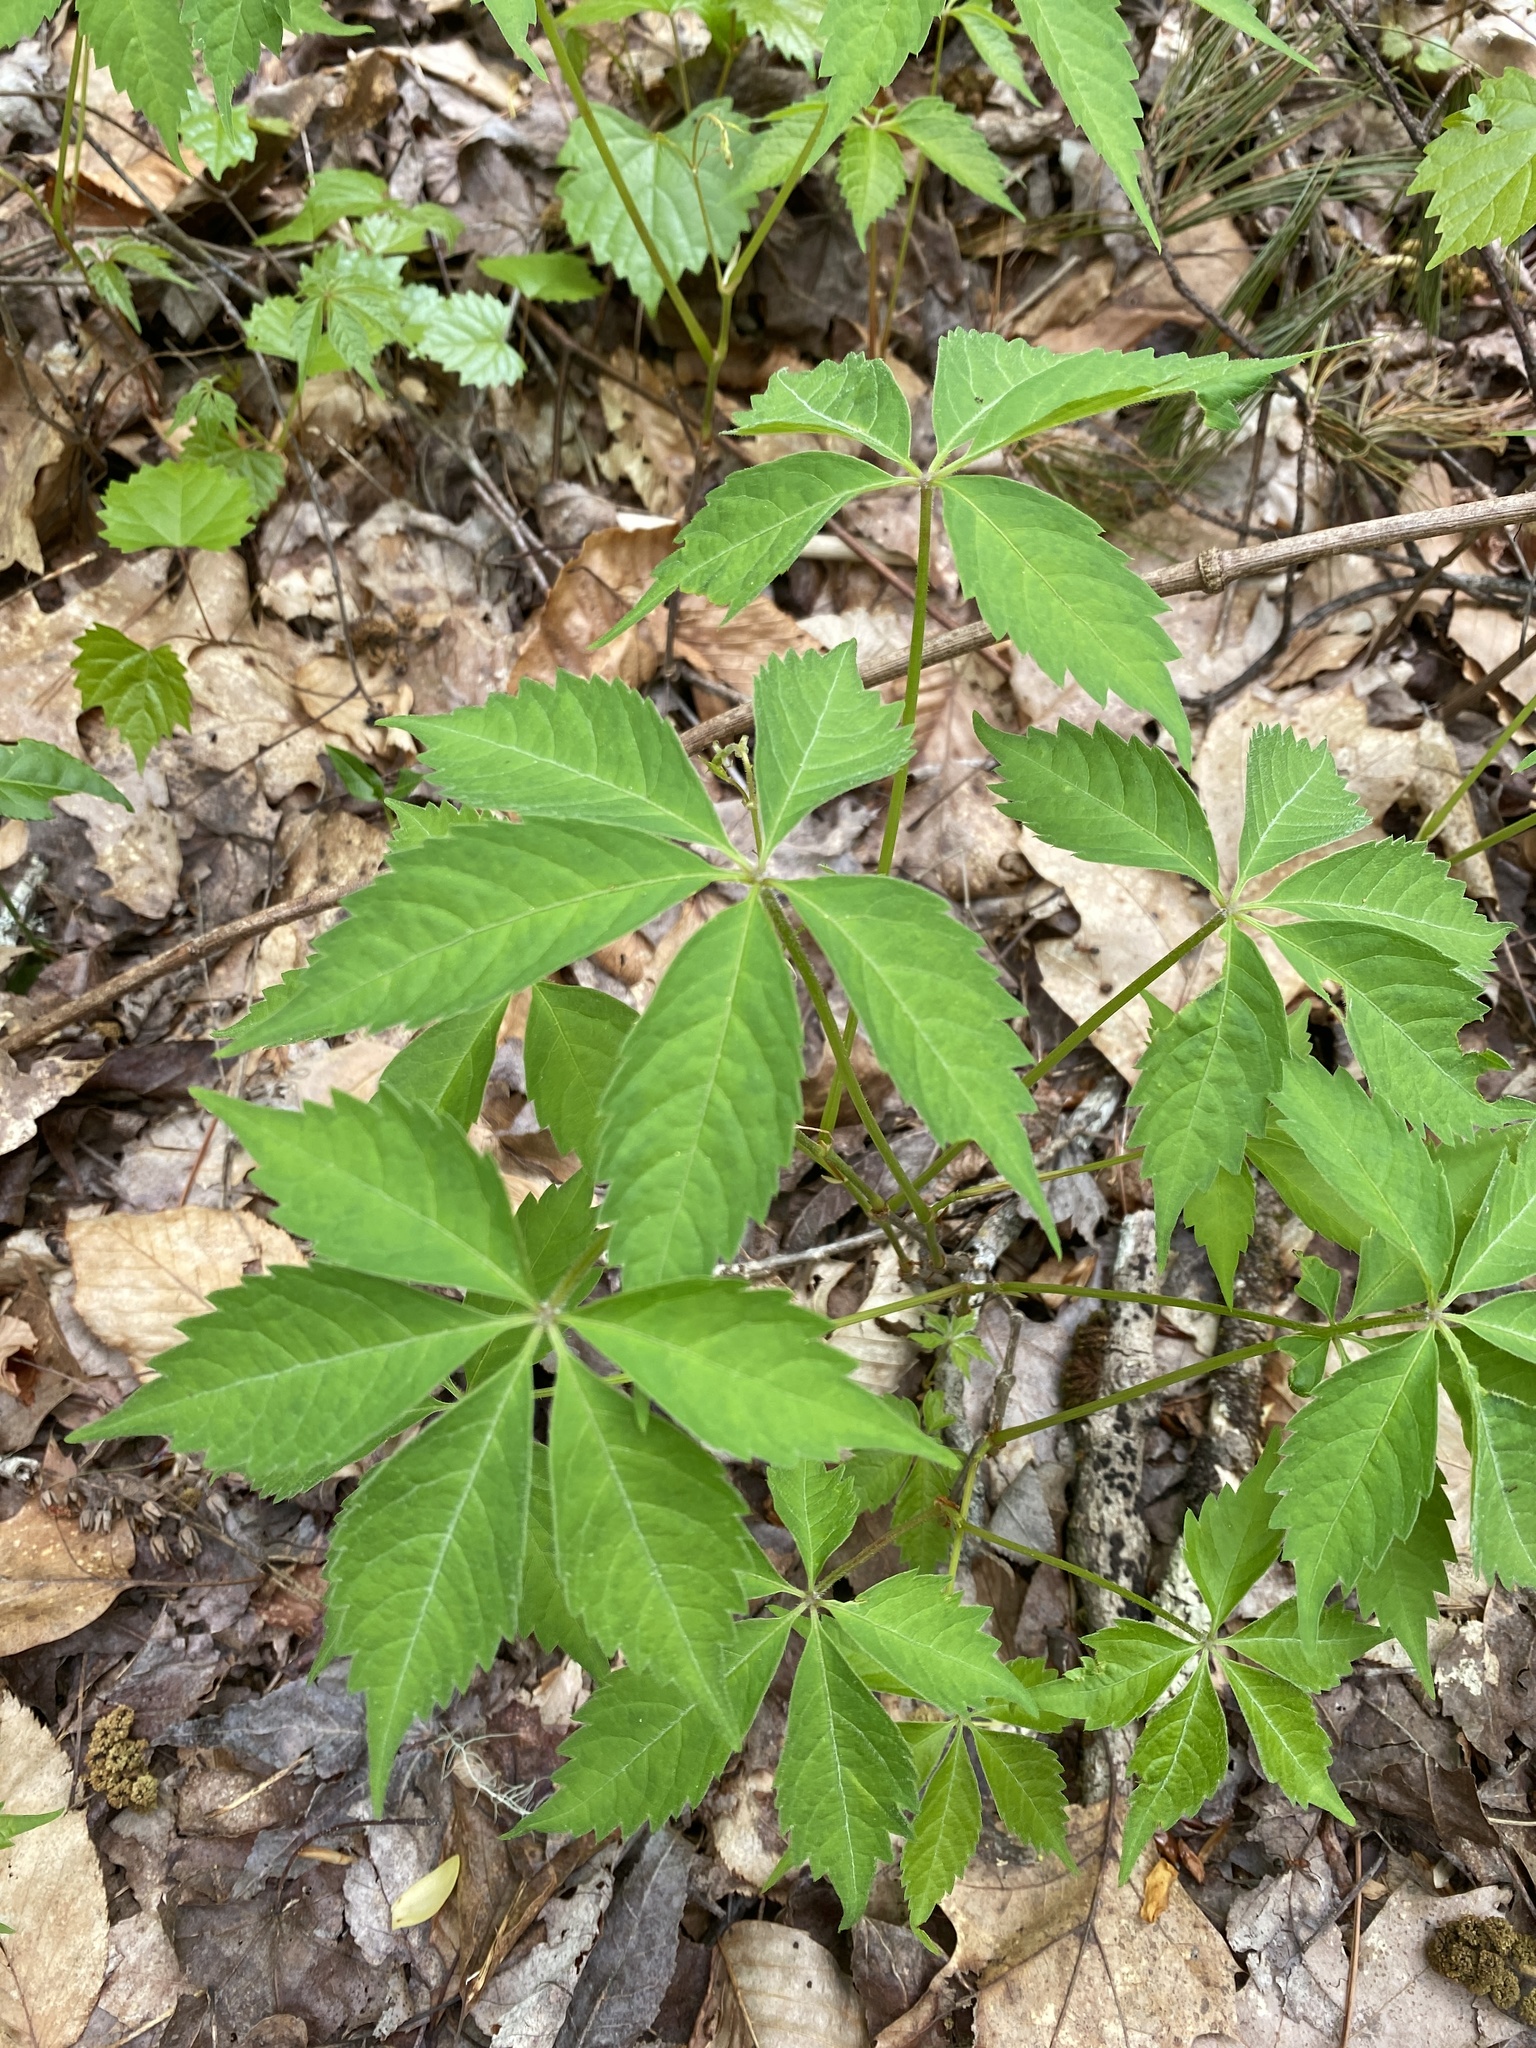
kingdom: Plantae
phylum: Tracheophyta
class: Magnoliopsida
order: Vitales
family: Vitaceae
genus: Parthenocissus
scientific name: Parthenocissus quinquefolia
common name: Virginia-creeper
